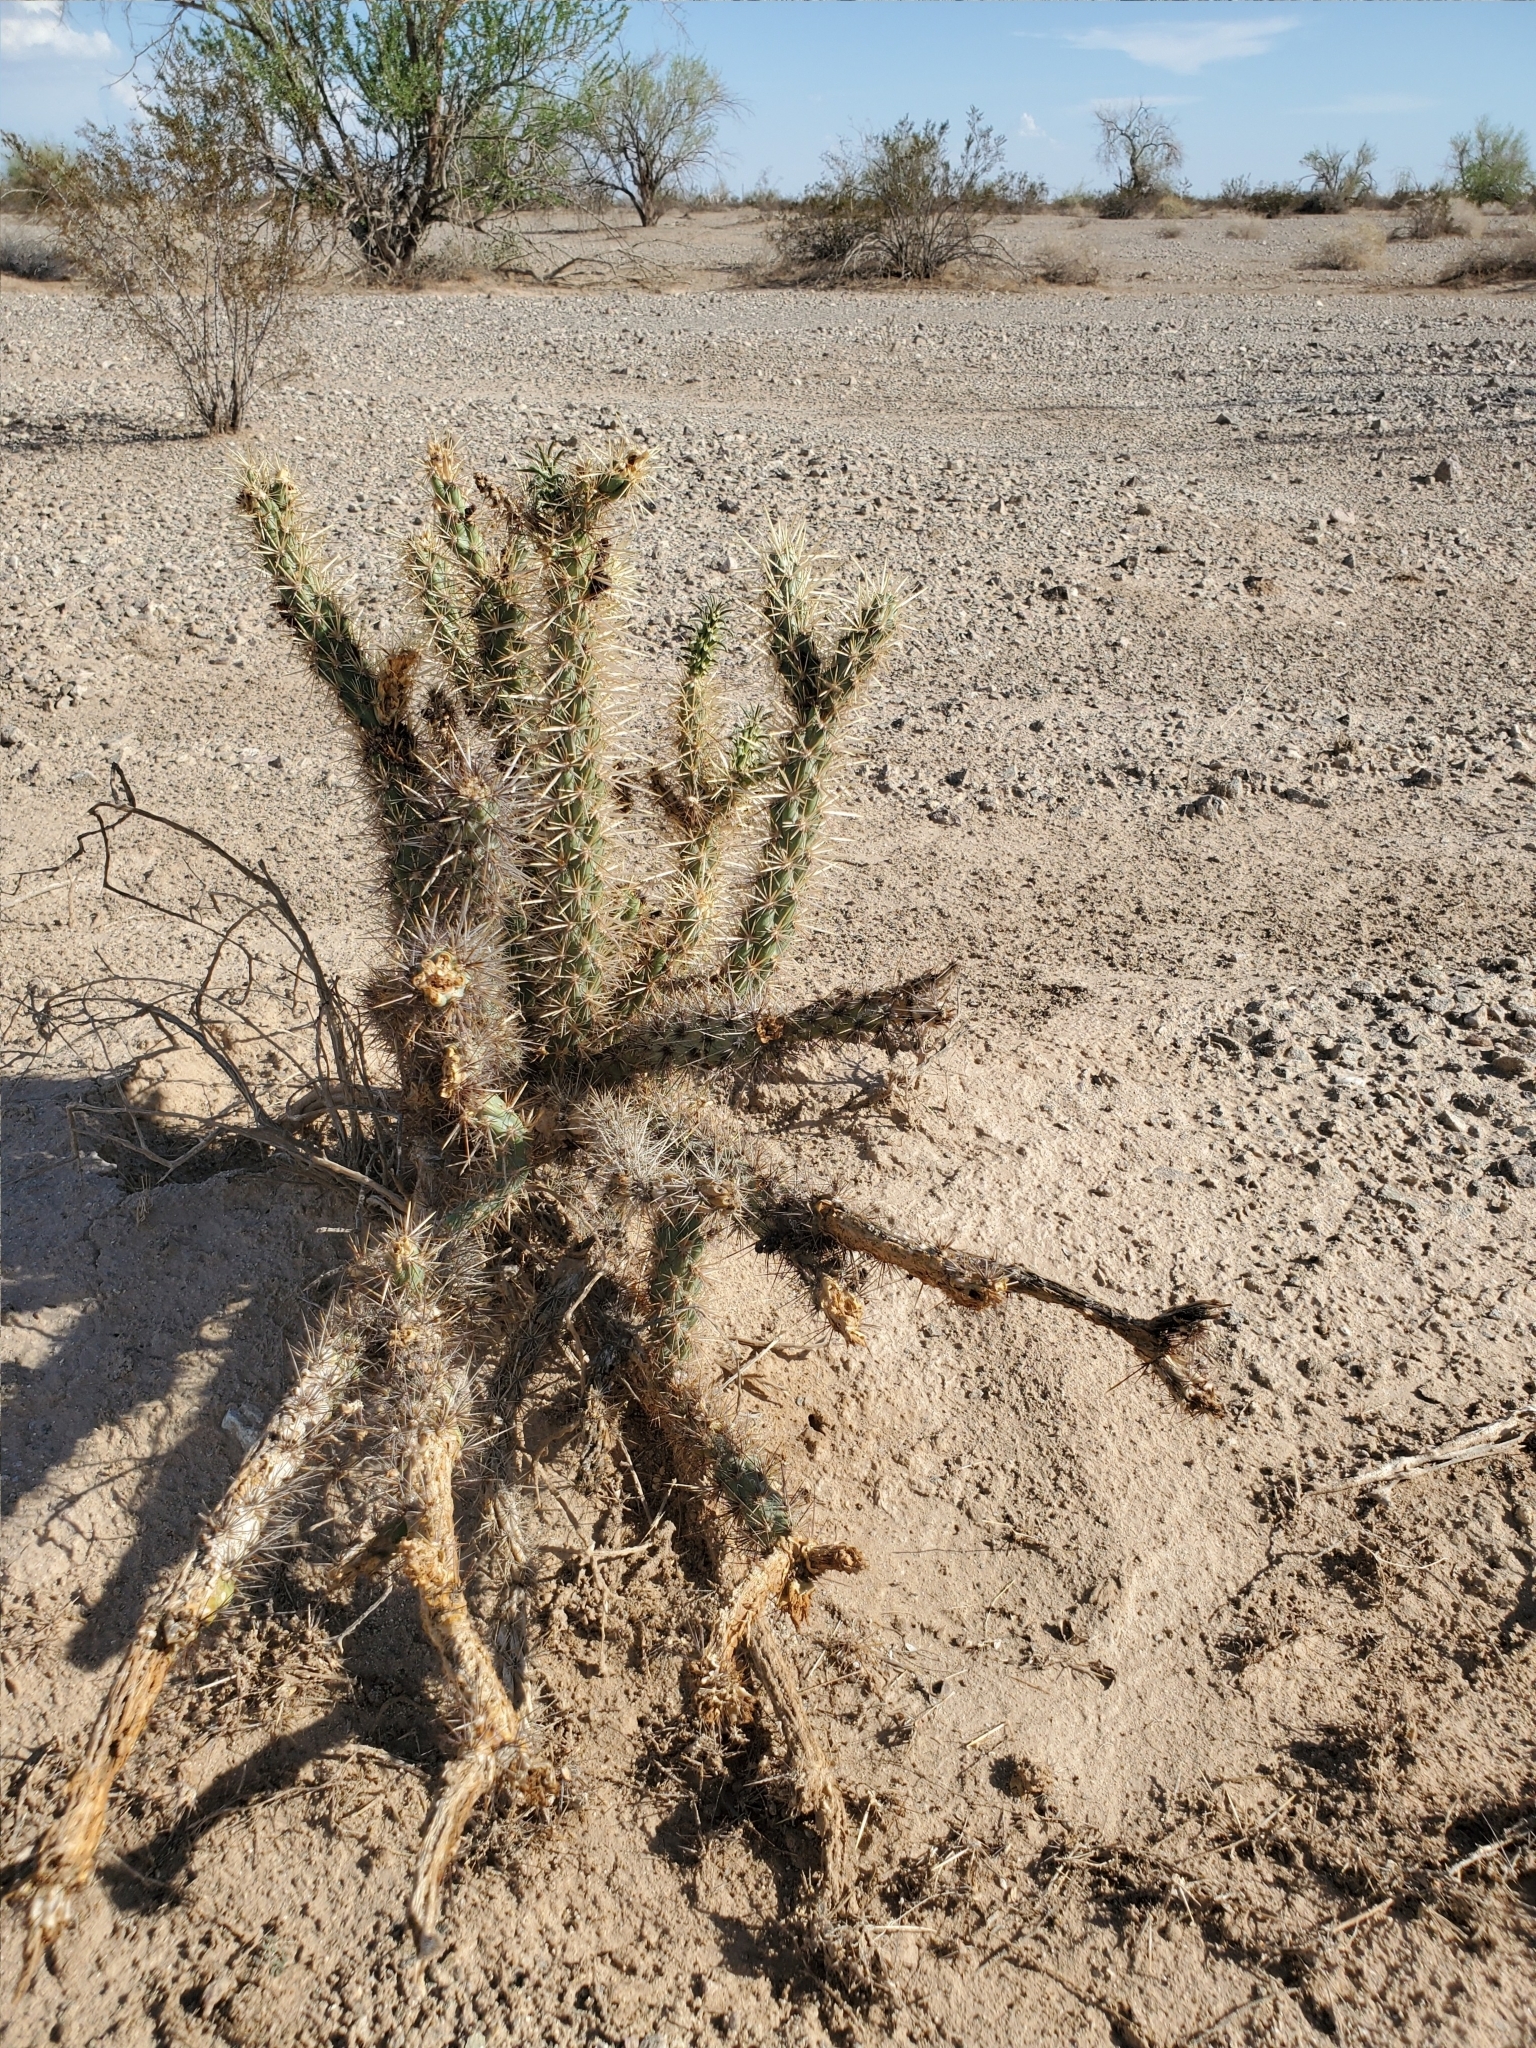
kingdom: Plantae
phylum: Tracheophyta
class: Magnoliopsida
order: Caryophyllales
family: Cactaceae
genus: Cylindropuntia
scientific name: Cylindropuntia acanthocarpa
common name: Buckhorn cholla
